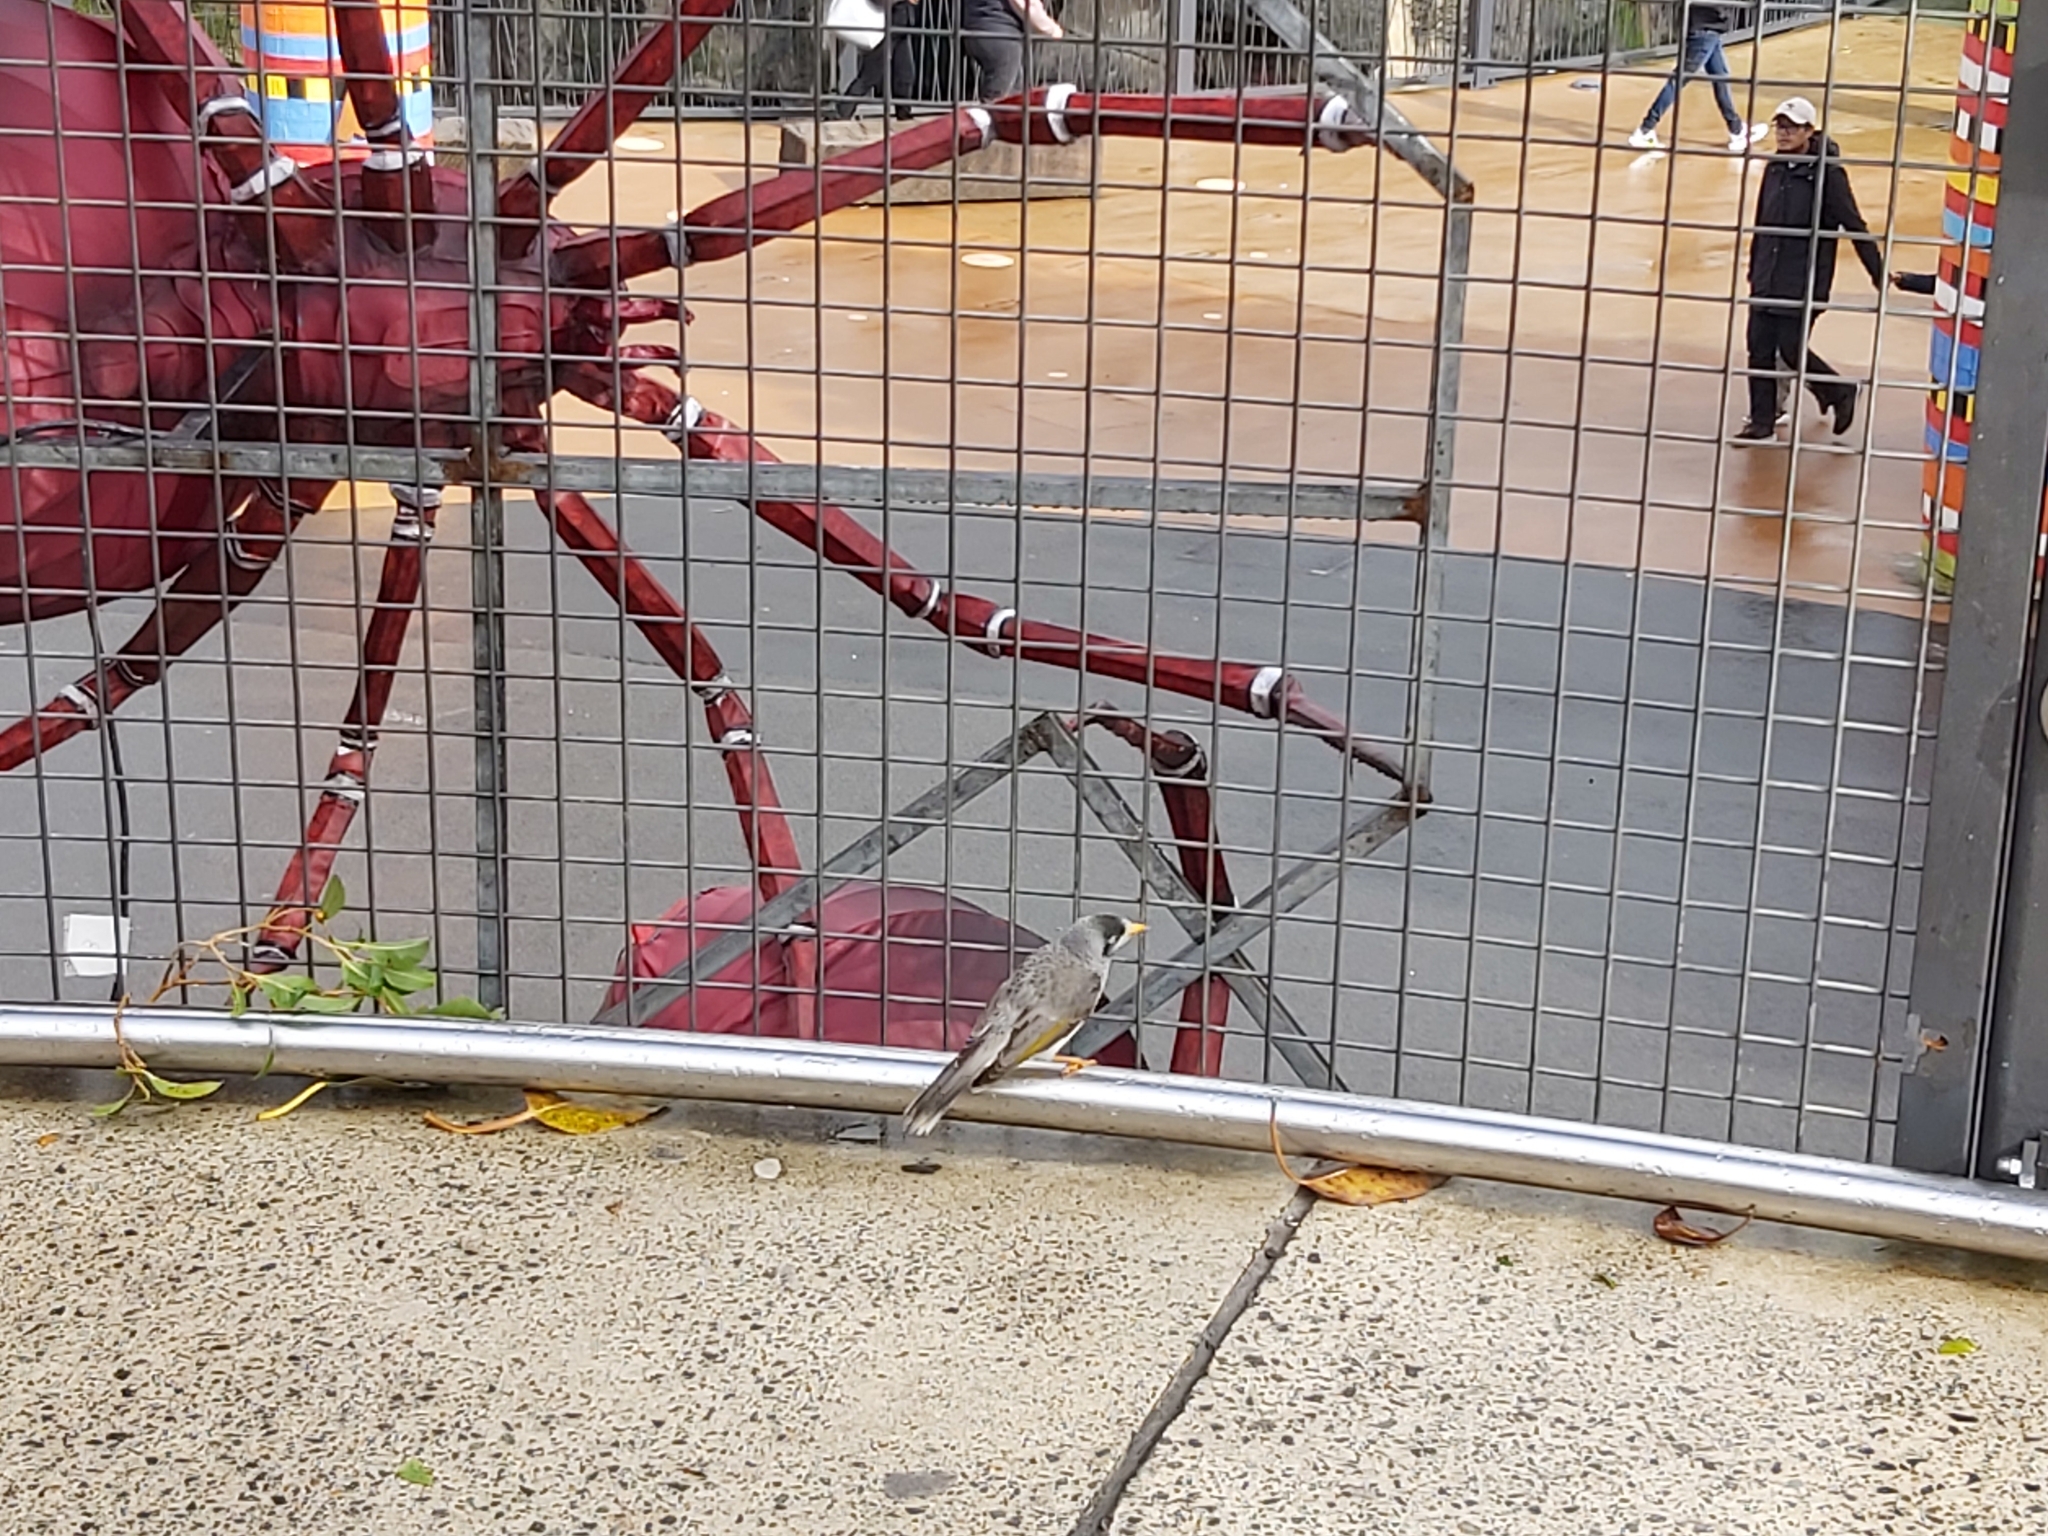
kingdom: Animalia
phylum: Chordata
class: Aves
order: Passeriformes
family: Meliphagidae
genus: Manorina
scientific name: Manorina melanocephala
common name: Noisy miner
